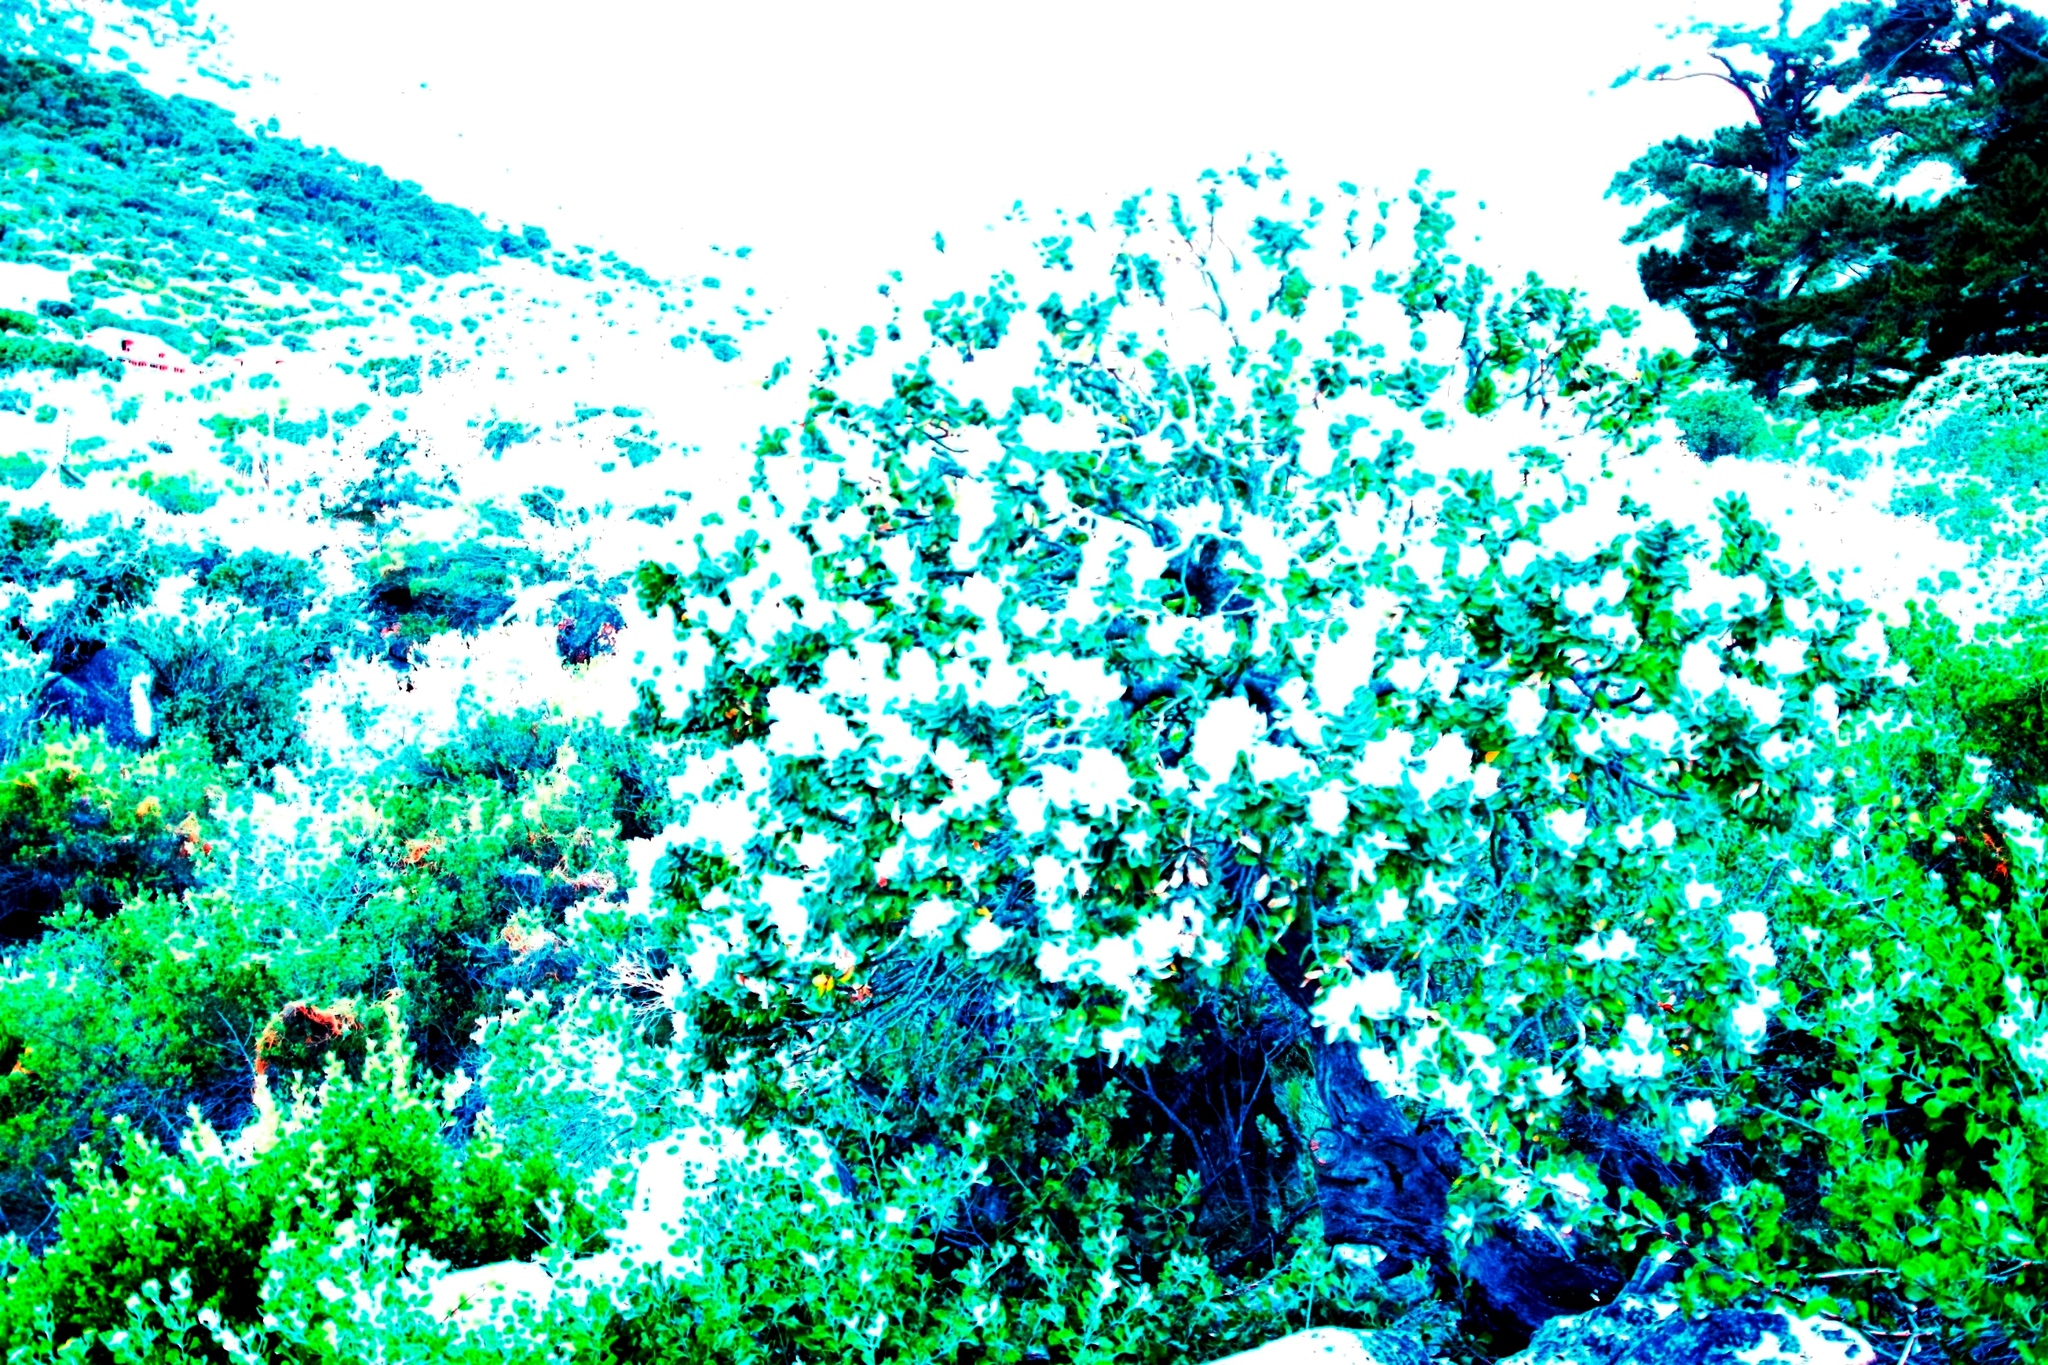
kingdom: Plantae
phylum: Tracheophyta
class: Magnoliopsida
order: Proteales
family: Proteaceae
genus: Leucospermum
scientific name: Leucospermum conocarpodendron
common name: Tree pincushion
